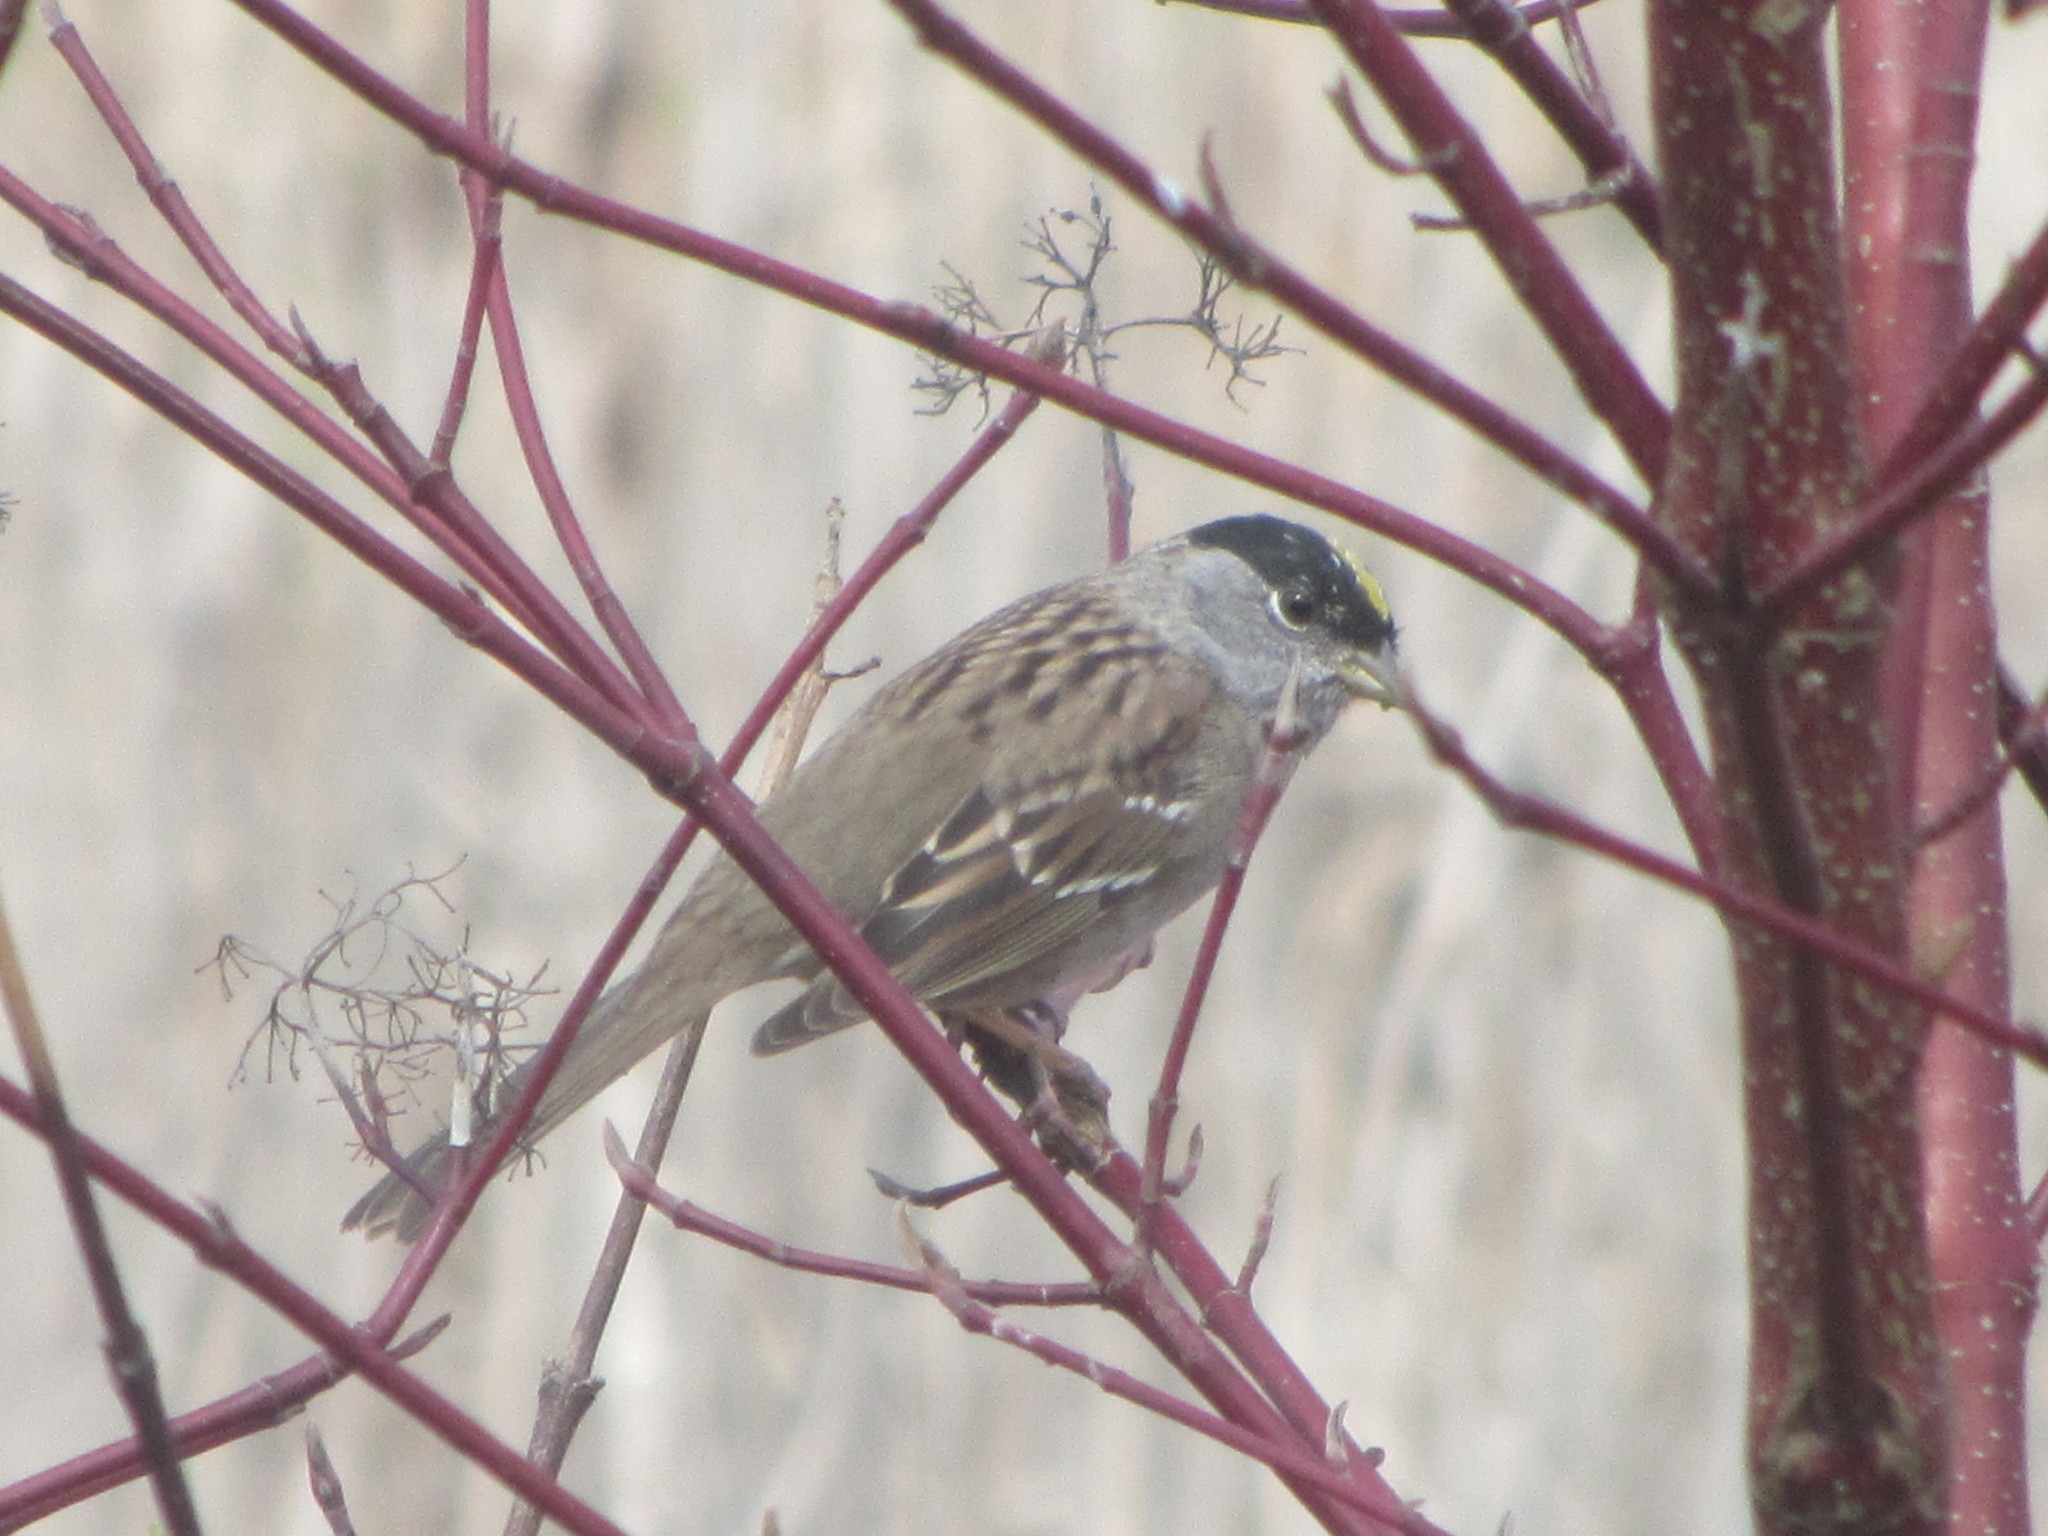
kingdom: Animalia
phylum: Chordata
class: Aves
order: Passeriformes
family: Passerellidae
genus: Zonotrichia
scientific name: Zonotrichia atricapilla
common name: Golden-crowned sparrow
